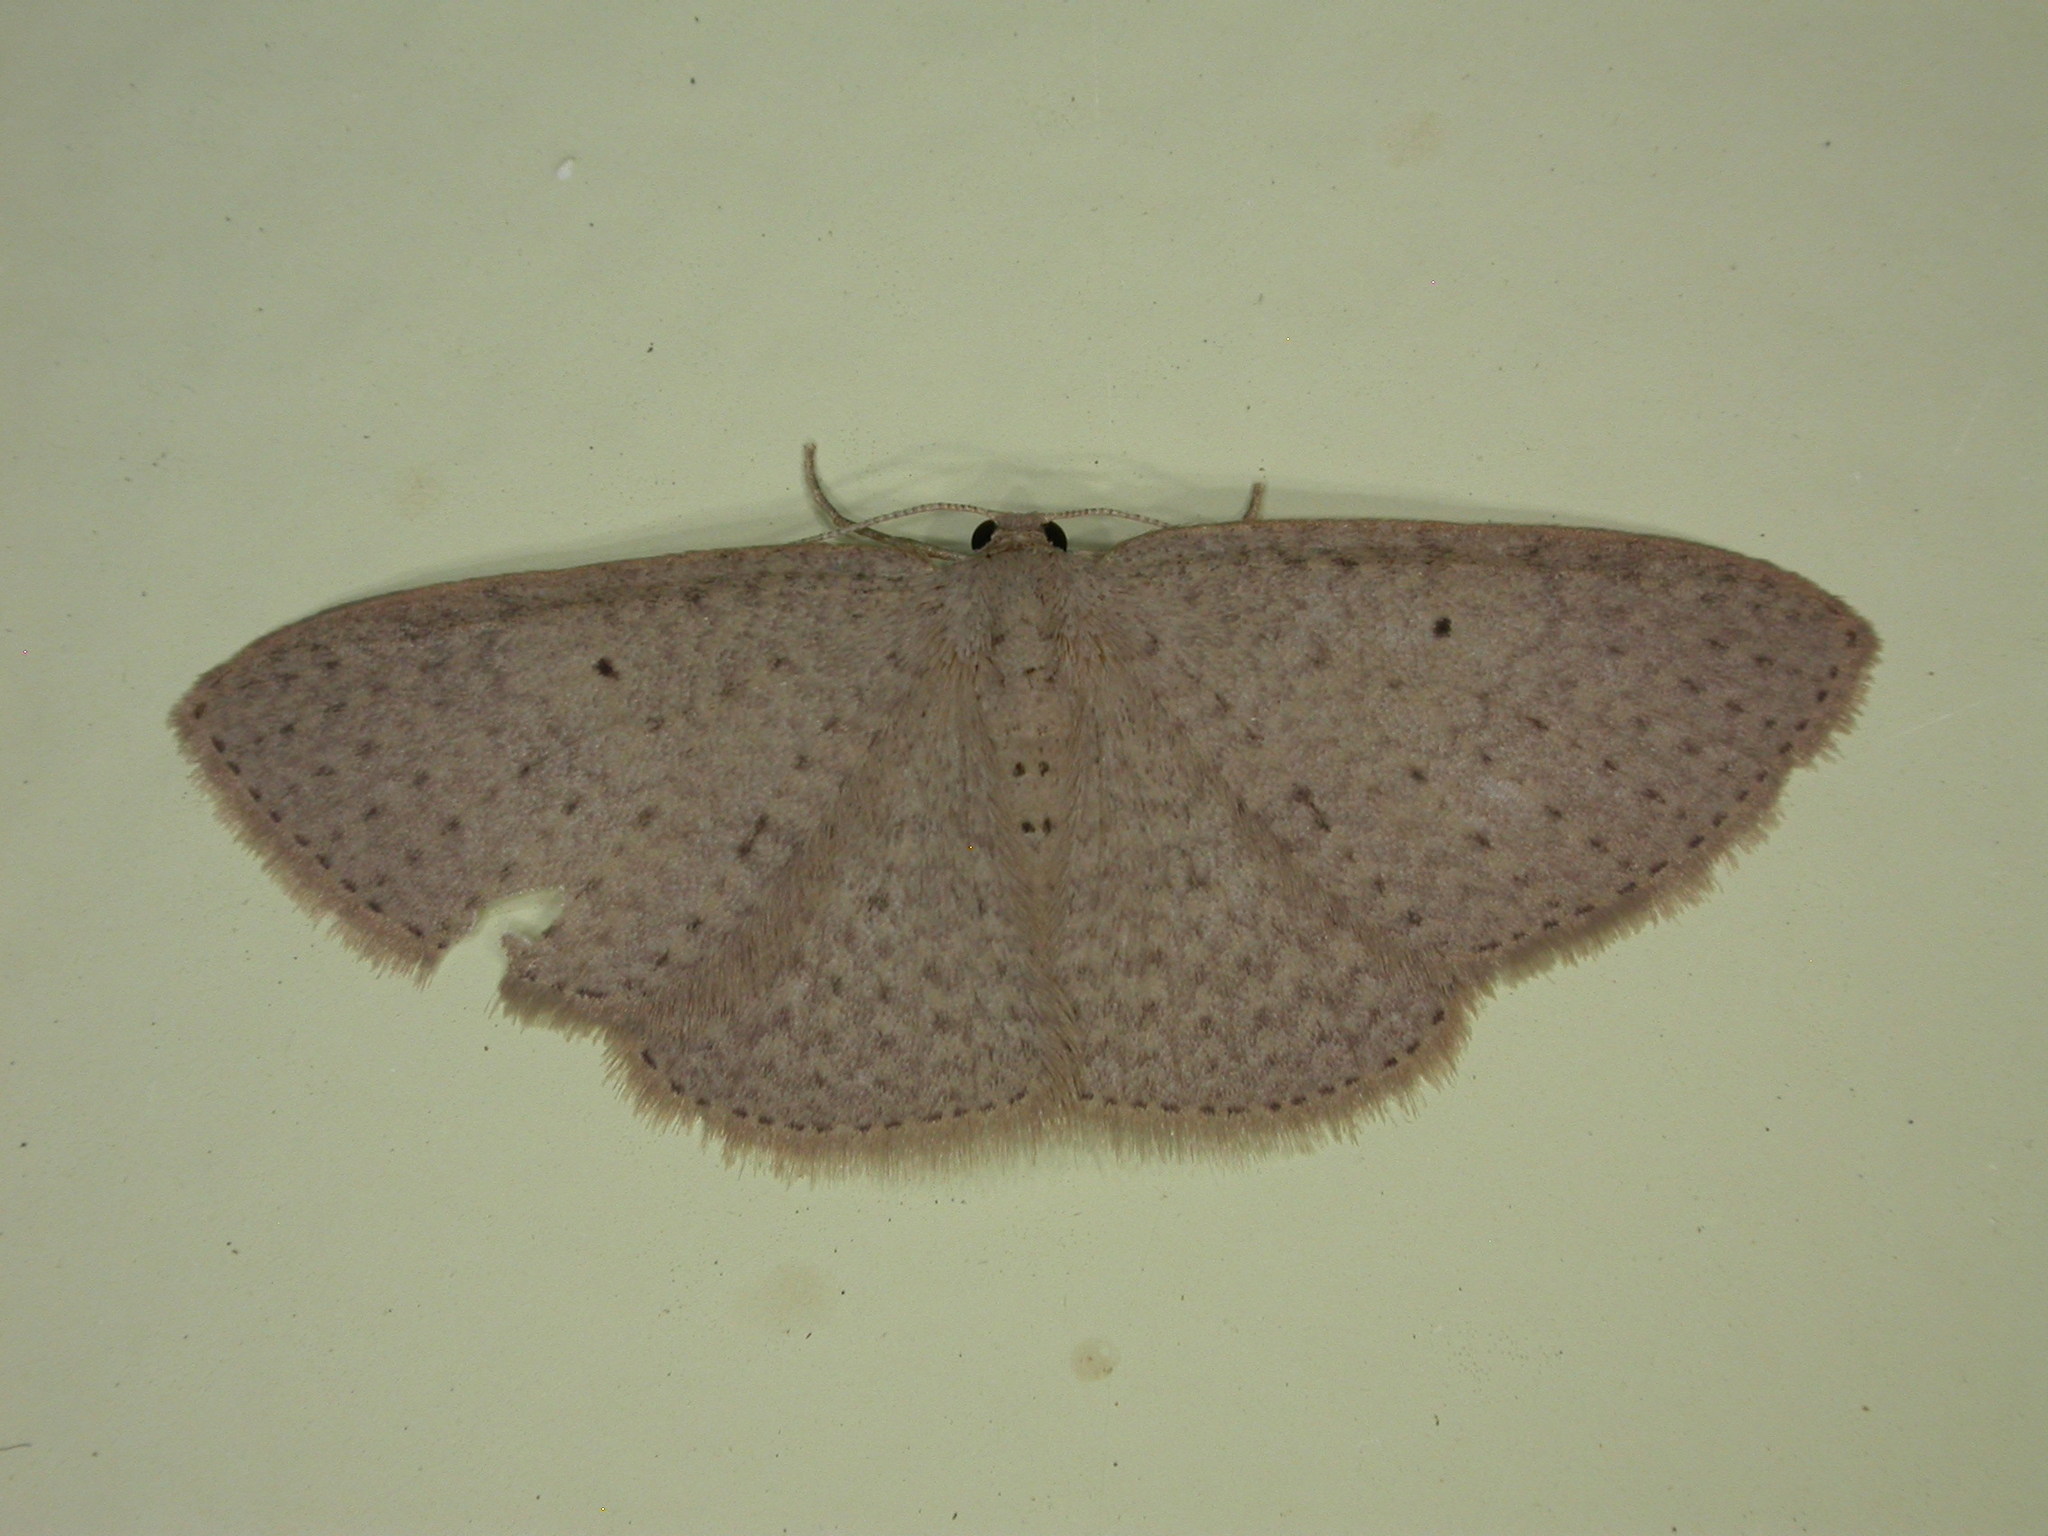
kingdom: Animalia
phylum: Arthropoda
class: Insecta
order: Lepidoptera
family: Geometridae
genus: Poecilasthena
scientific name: Poecilasthena anthodes
